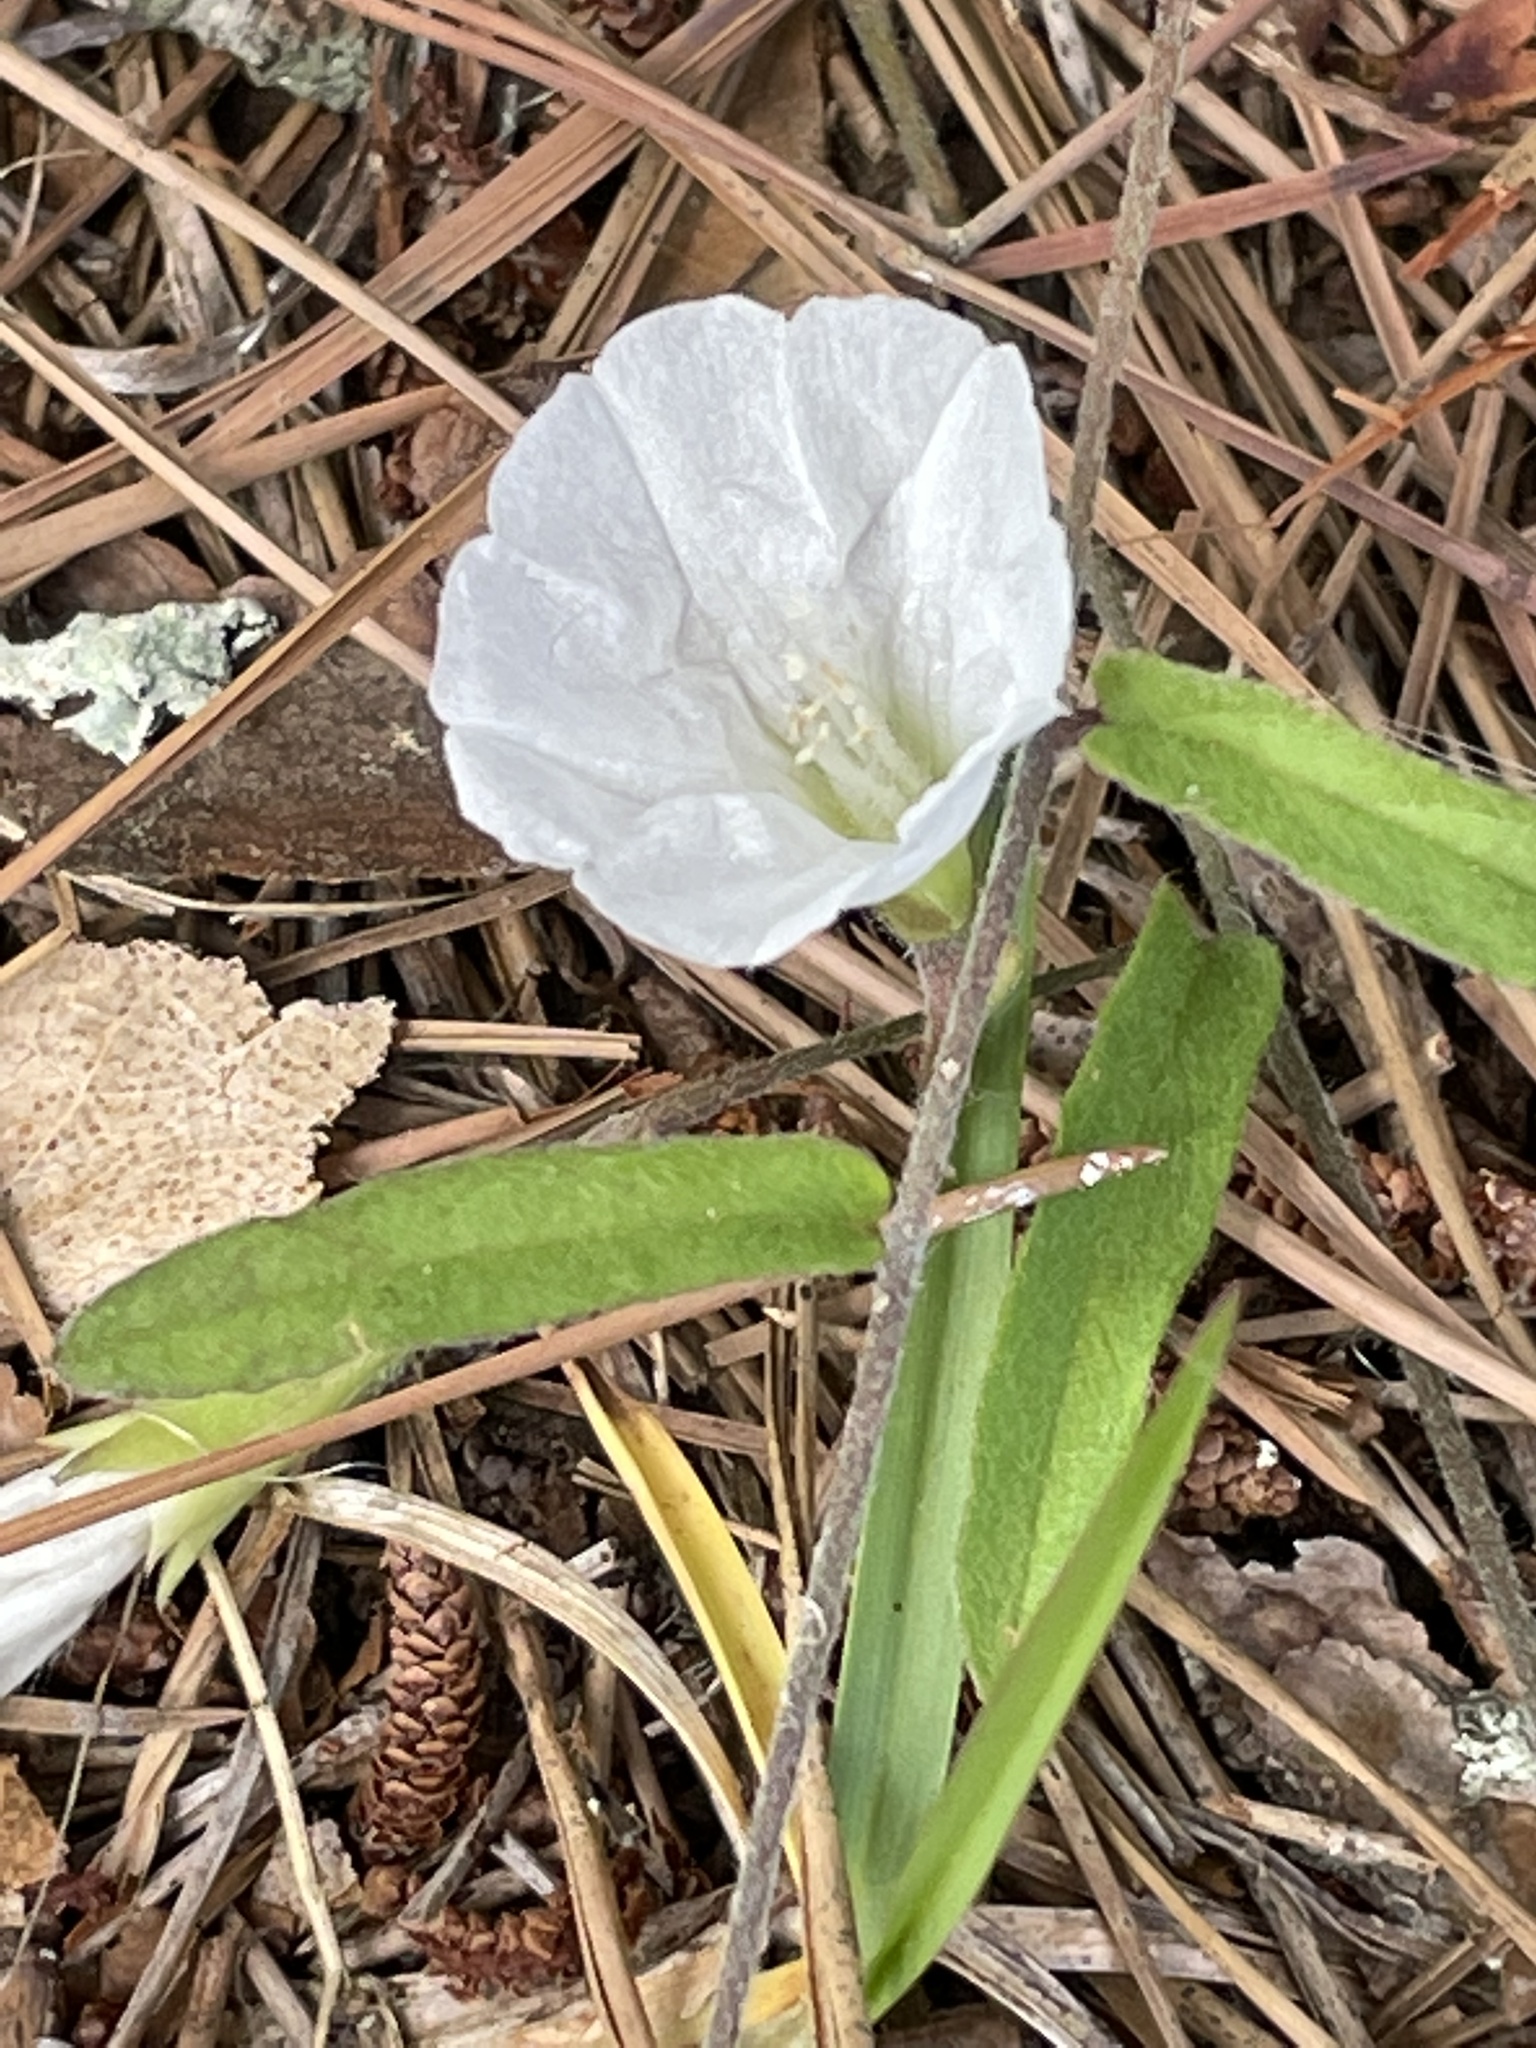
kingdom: Plantae
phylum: Tracheophyta
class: Magnoliopsida
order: Solanales
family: Convolvulaceae
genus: Stylisma
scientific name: Stylisma patens
